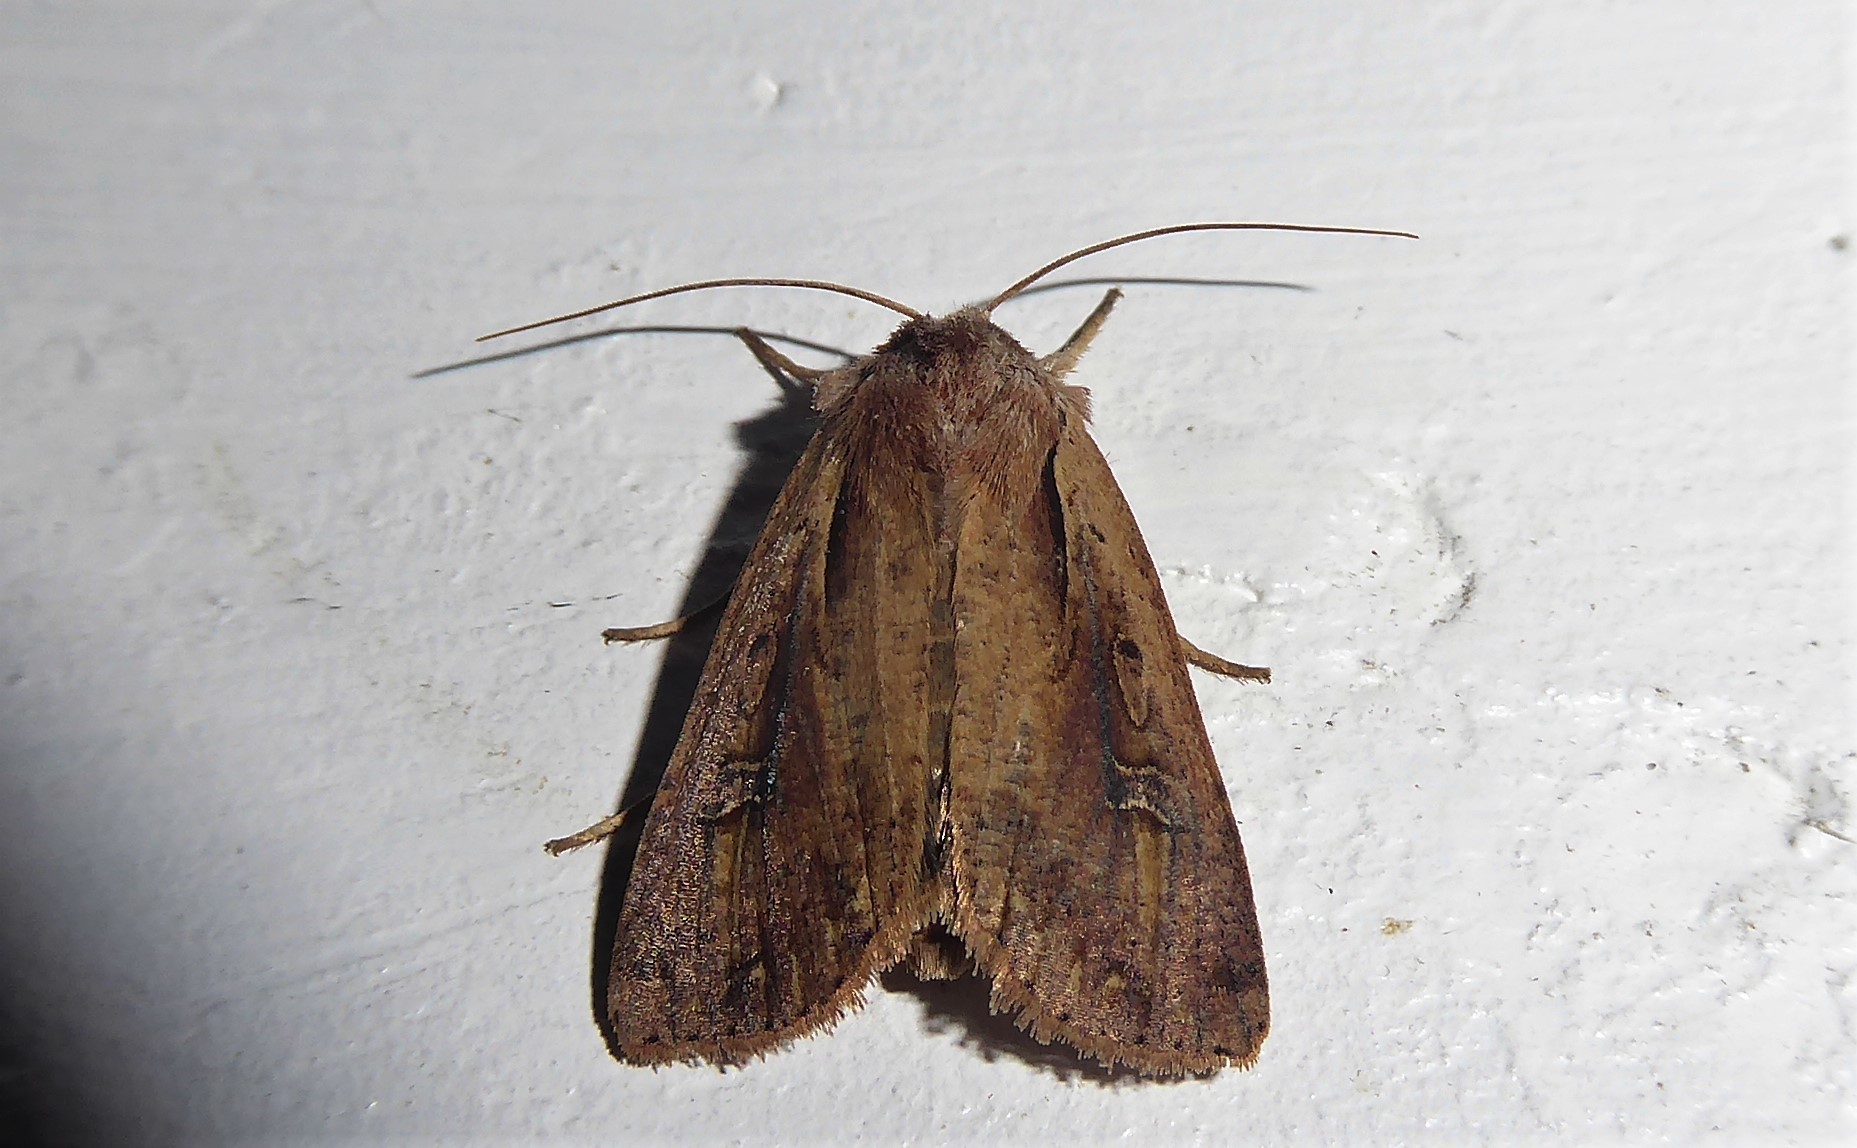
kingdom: Animalia
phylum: Arthropoda
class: Insecta
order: Lepidoptera
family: Noctuidae
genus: Ichneutica
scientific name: Ichneutica atristriga
